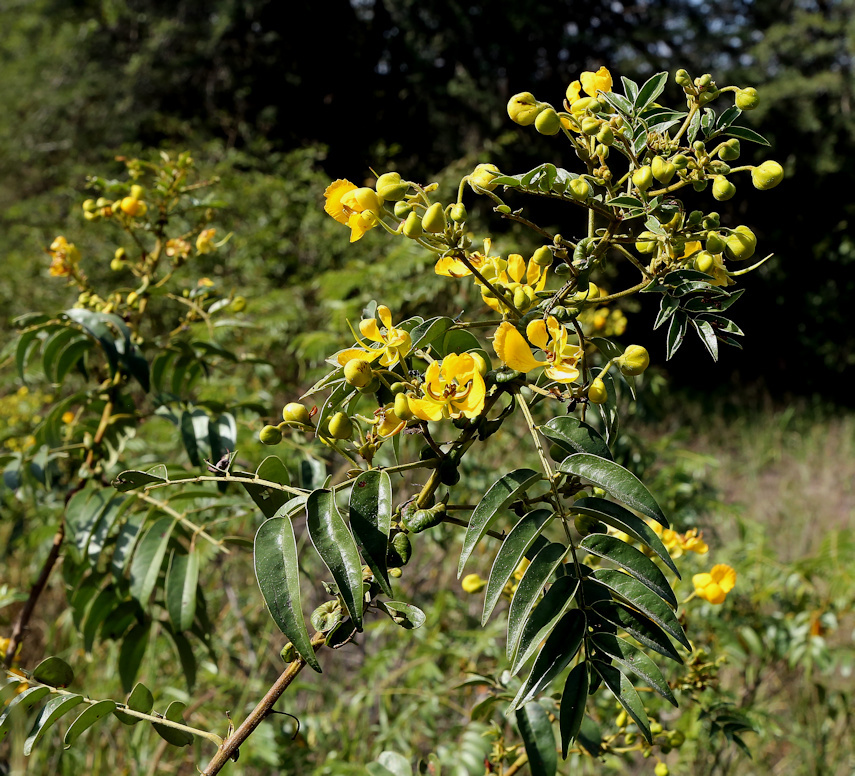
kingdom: Plantae
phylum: Tracheophyta
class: Magnoliopsida
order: Fabales
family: Fabaceae
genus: Senna
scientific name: Senna petersiana
